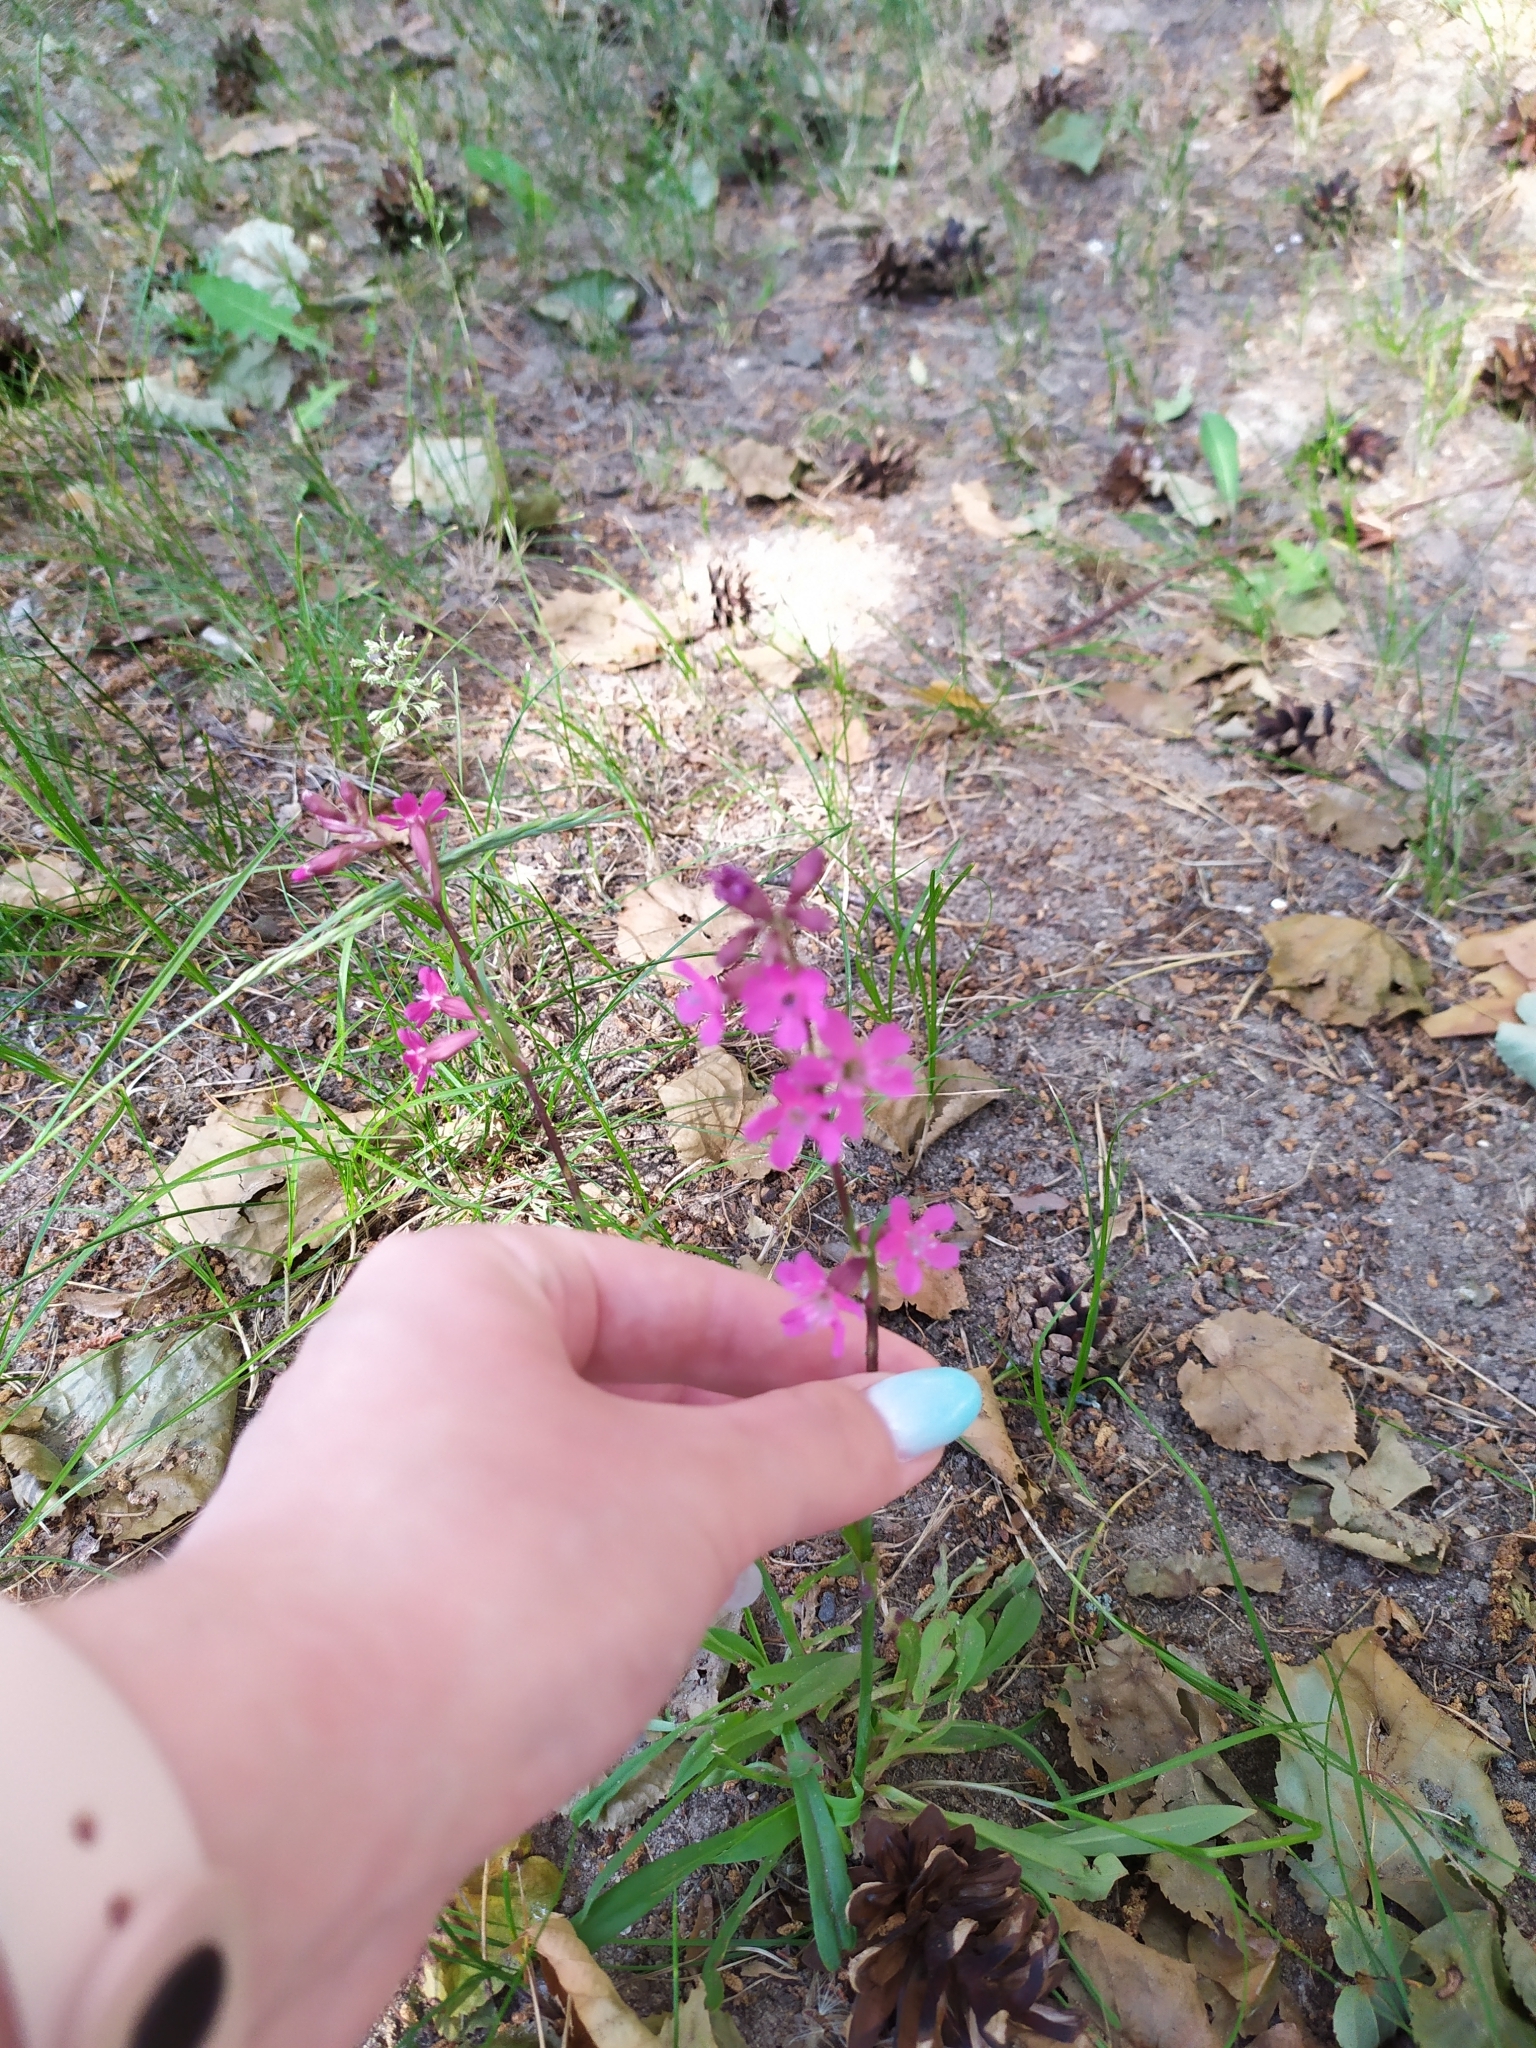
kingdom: Plantae
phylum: Tracheophyta
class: Magnoliopsida
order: Caryophyllales
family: Caryophyllaceae
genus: Viscaria
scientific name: Viscaria vulgaris
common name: Clammy campion
